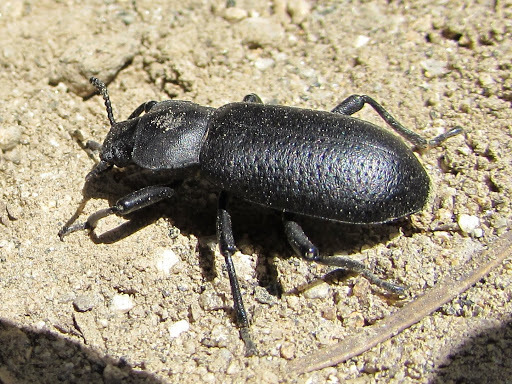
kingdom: Animalia
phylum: Arthropoda
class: Insecta
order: Coleoptera
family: Tenebrionidae
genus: Iphthiminus
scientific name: Iphthiminus serratus
